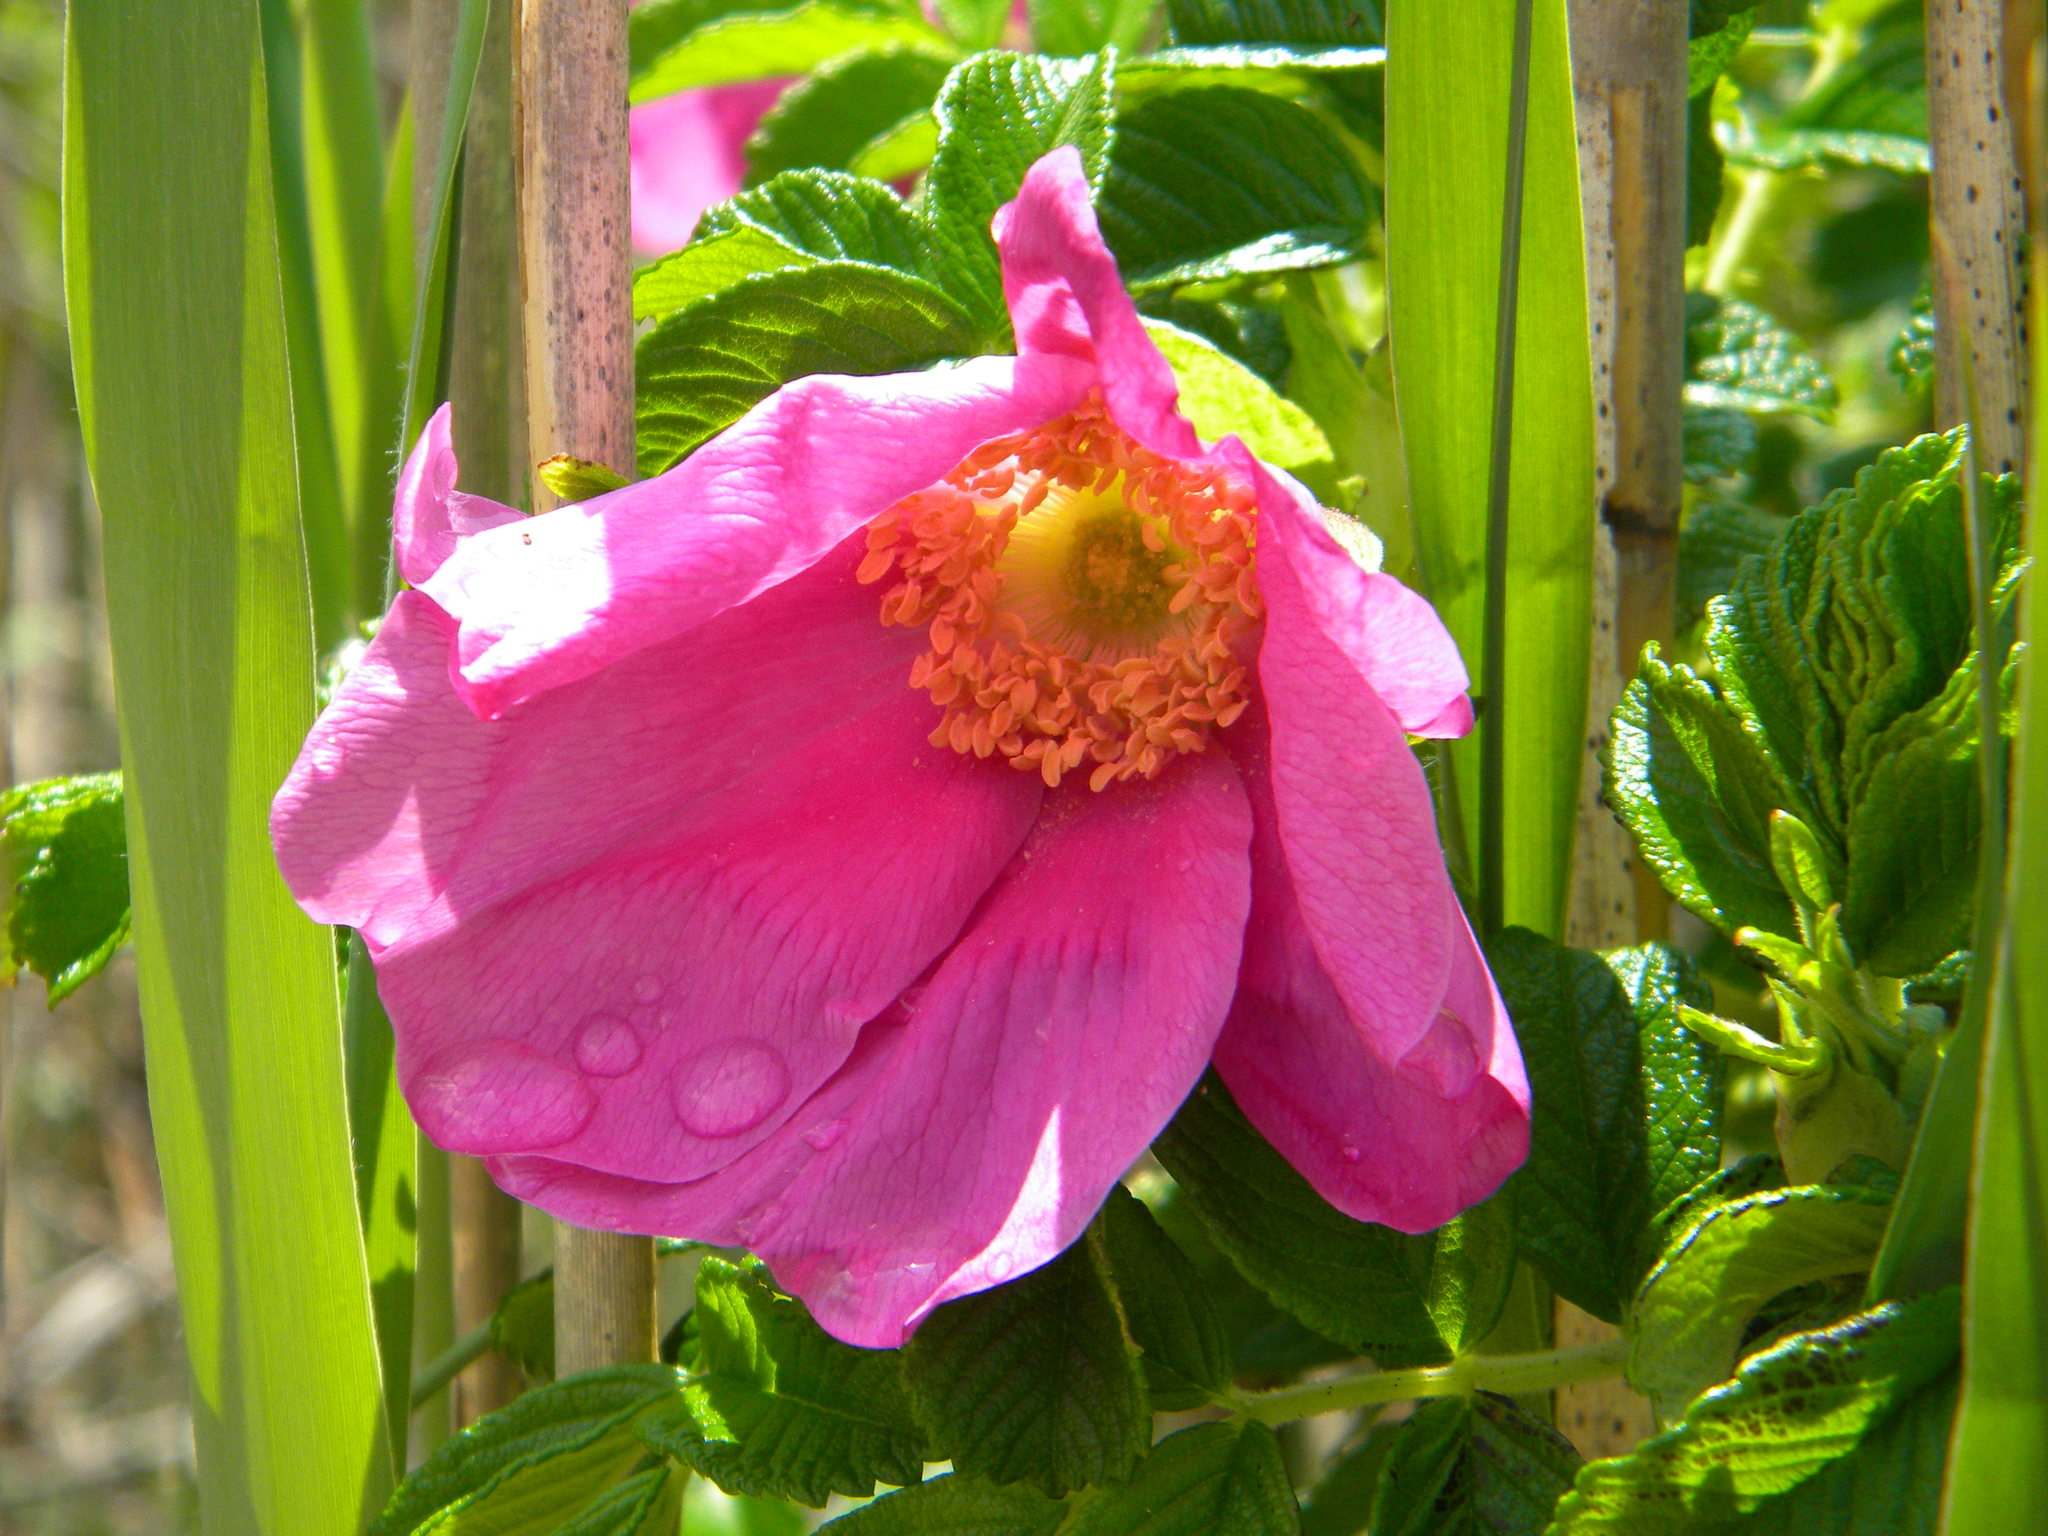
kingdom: Plantae
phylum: Tracheophyta
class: Magnoliopsida
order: Rosales
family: Rosaceae
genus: Rosa
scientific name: Rosa rugosa
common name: Japanese rose
